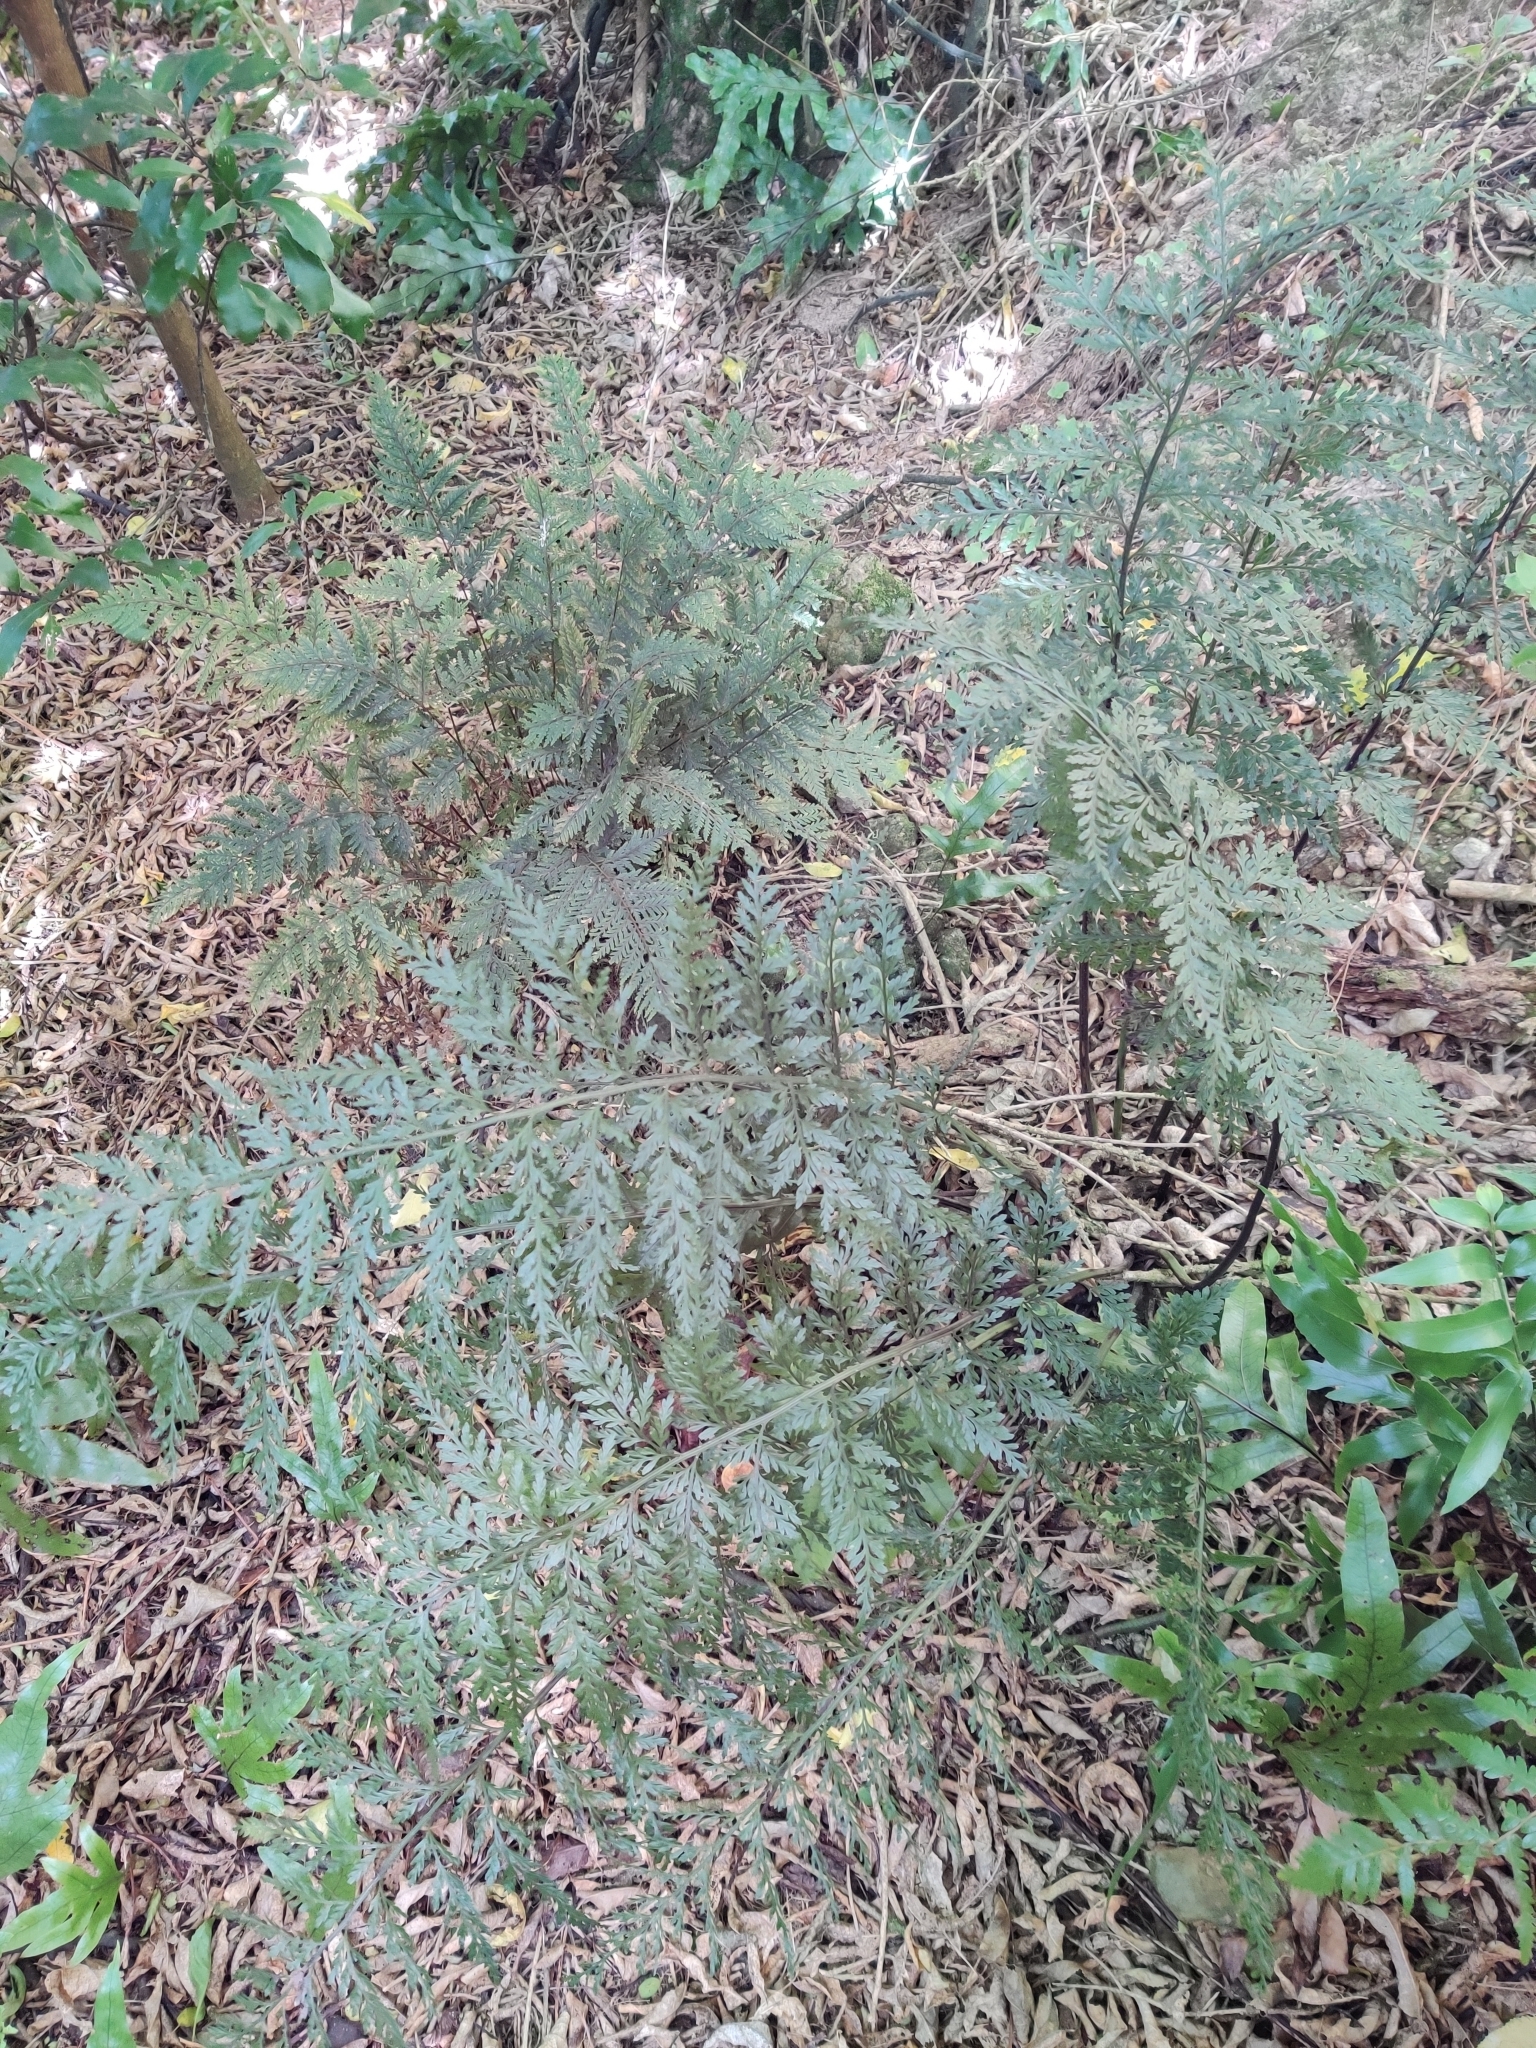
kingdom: Plantae
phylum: Tracheophyta
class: Polypodiopsida
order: Polypodiales
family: Aspleniaceae
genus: Asplenium
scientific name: Asplenium
